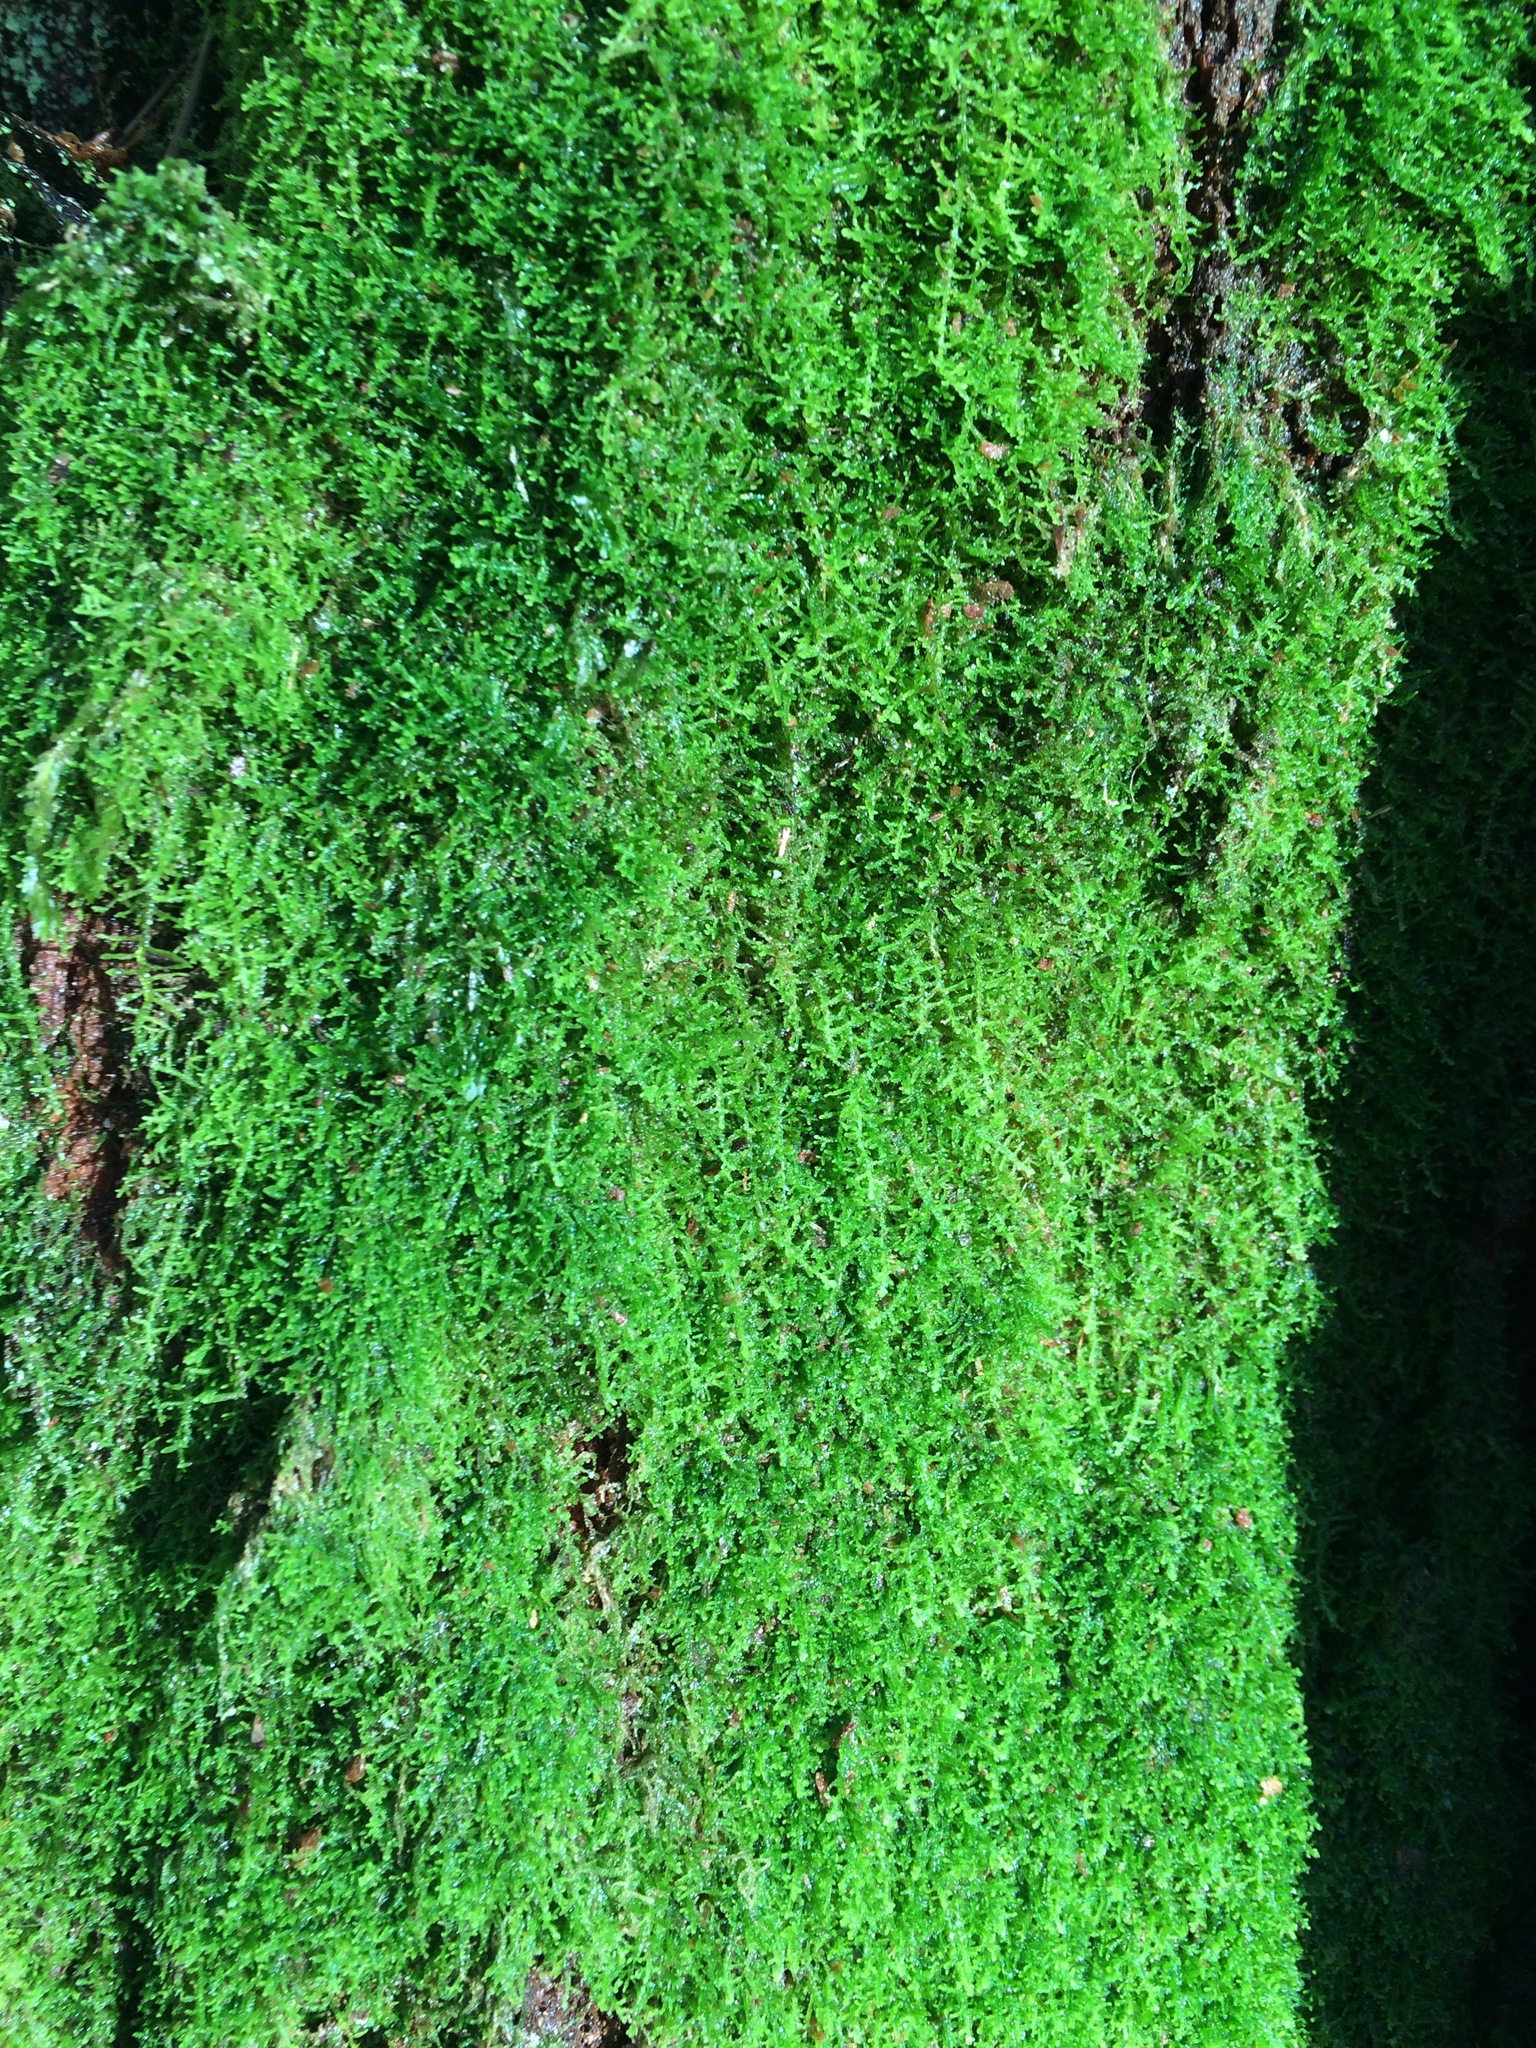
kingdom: Plantae
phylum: Marchantiophyta
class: Jungermanniopsida
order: Jungermanniales
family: Lepidoziaceae
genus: Lepidozia
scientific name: Lepidozia reptans
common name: Creeping fingerwort
